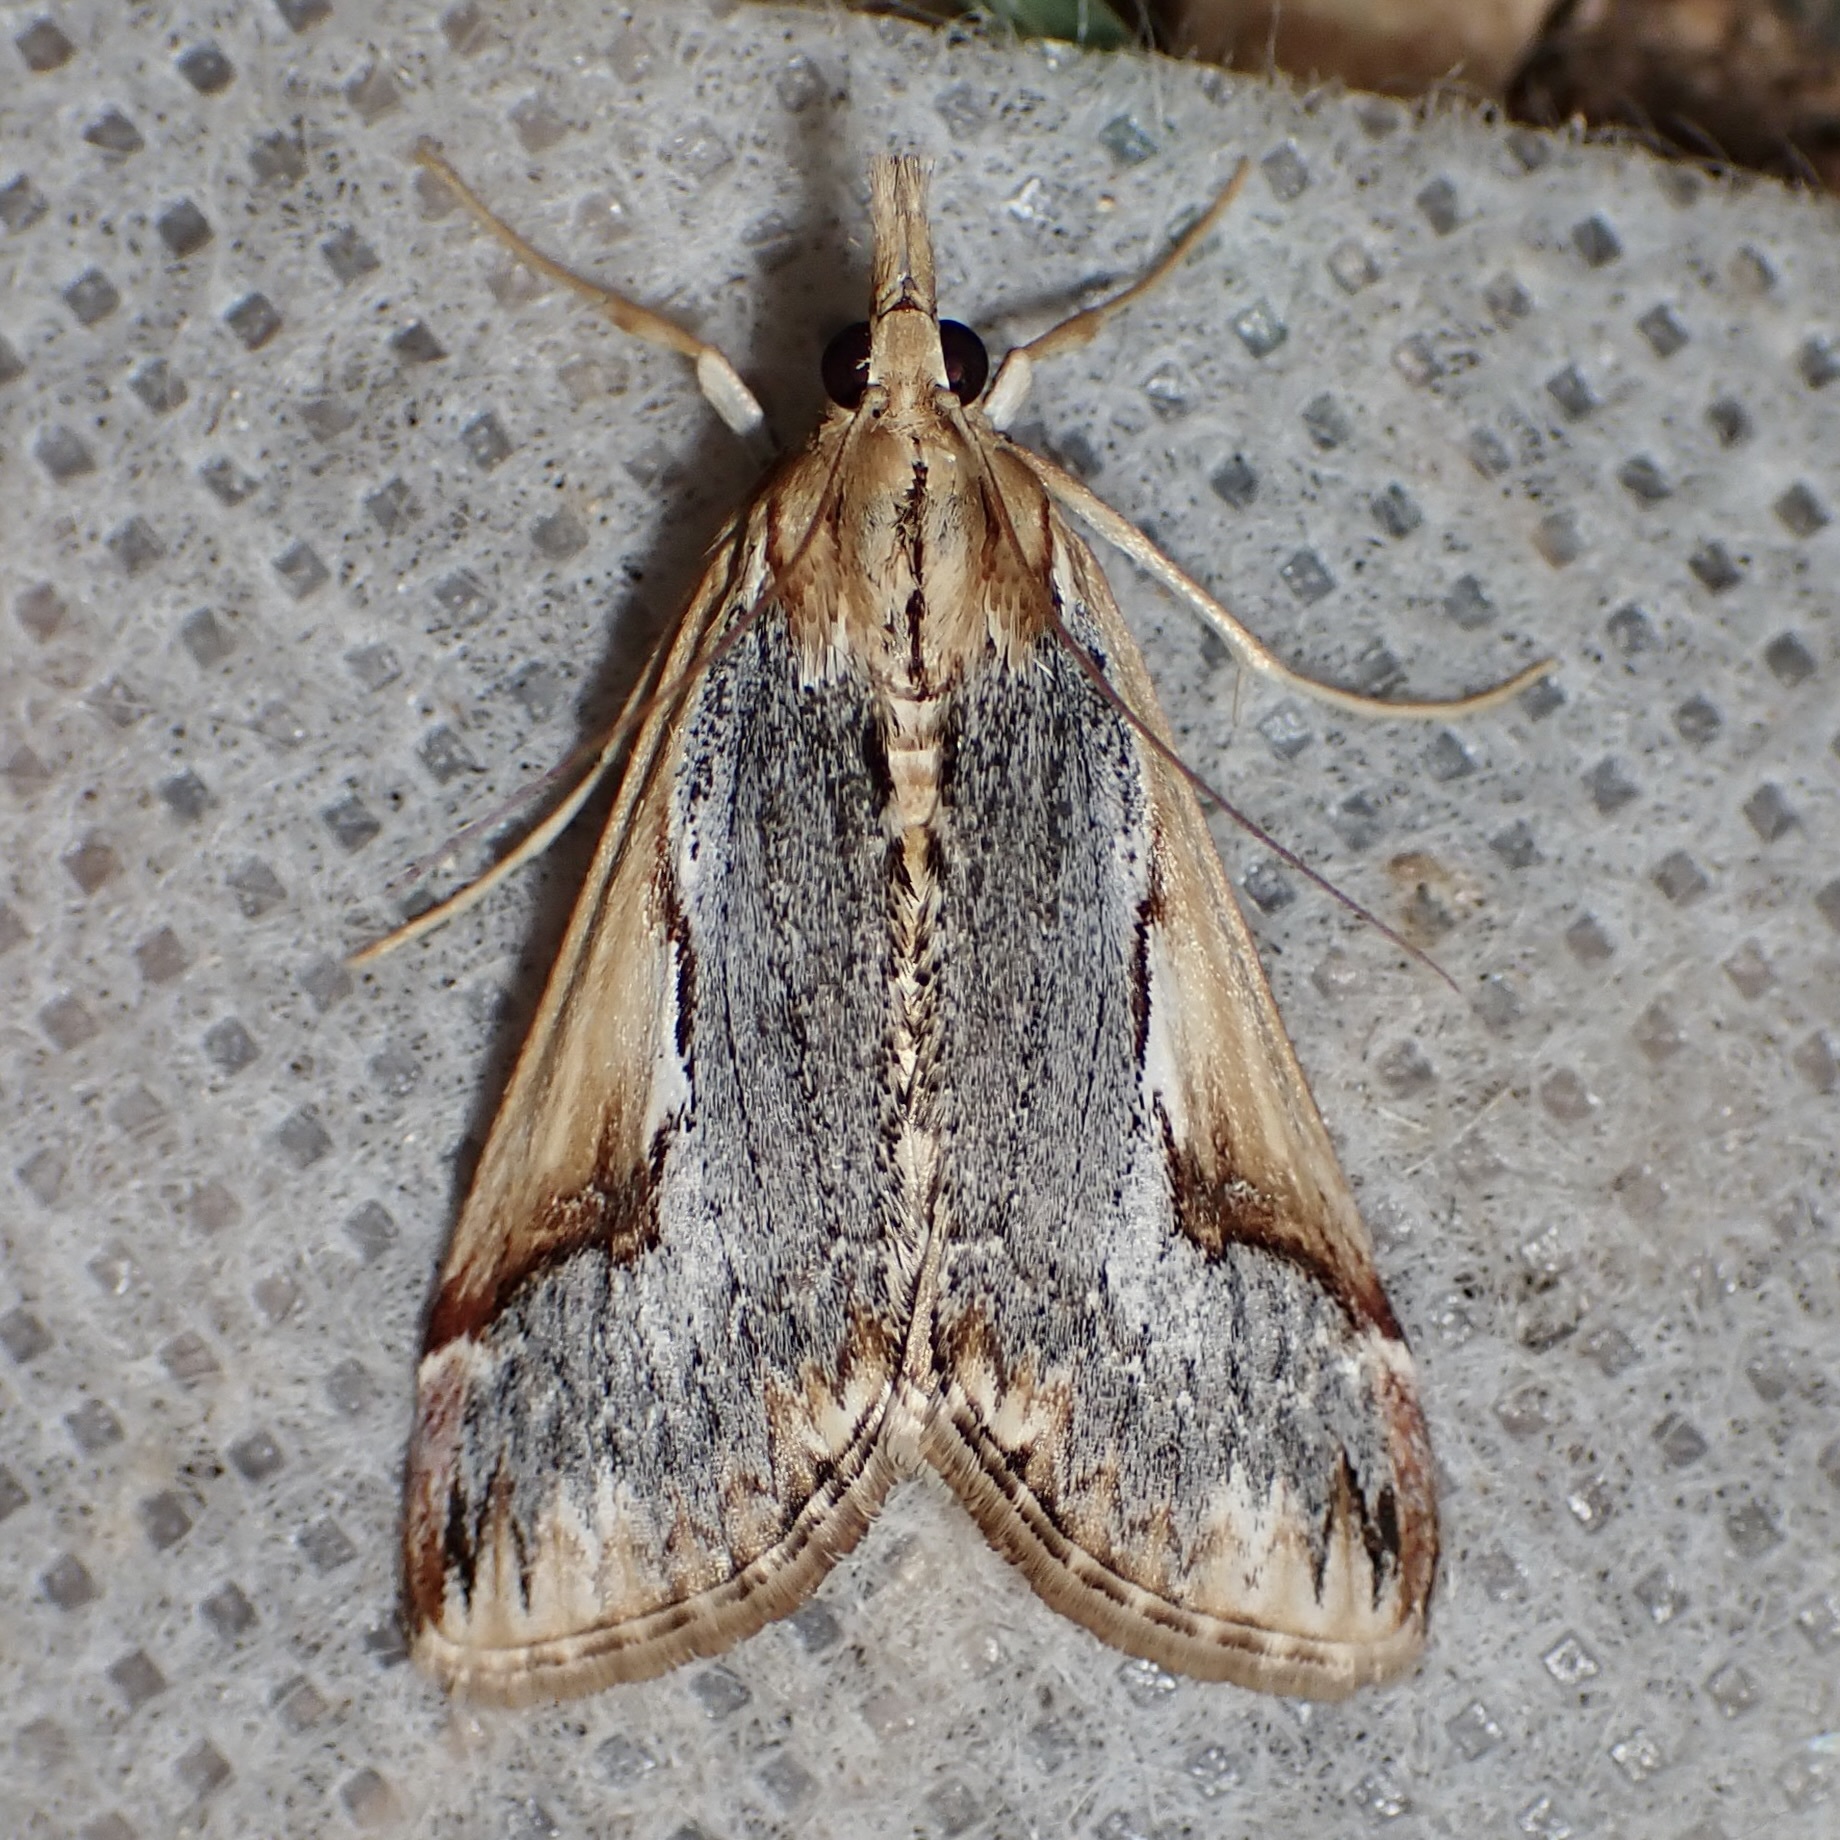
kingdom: Animalia
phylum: Arthropoda
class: Insecta
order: Lepidoptera
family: Crambidae
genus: Loxostege
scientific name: Loxostege albiceralis
